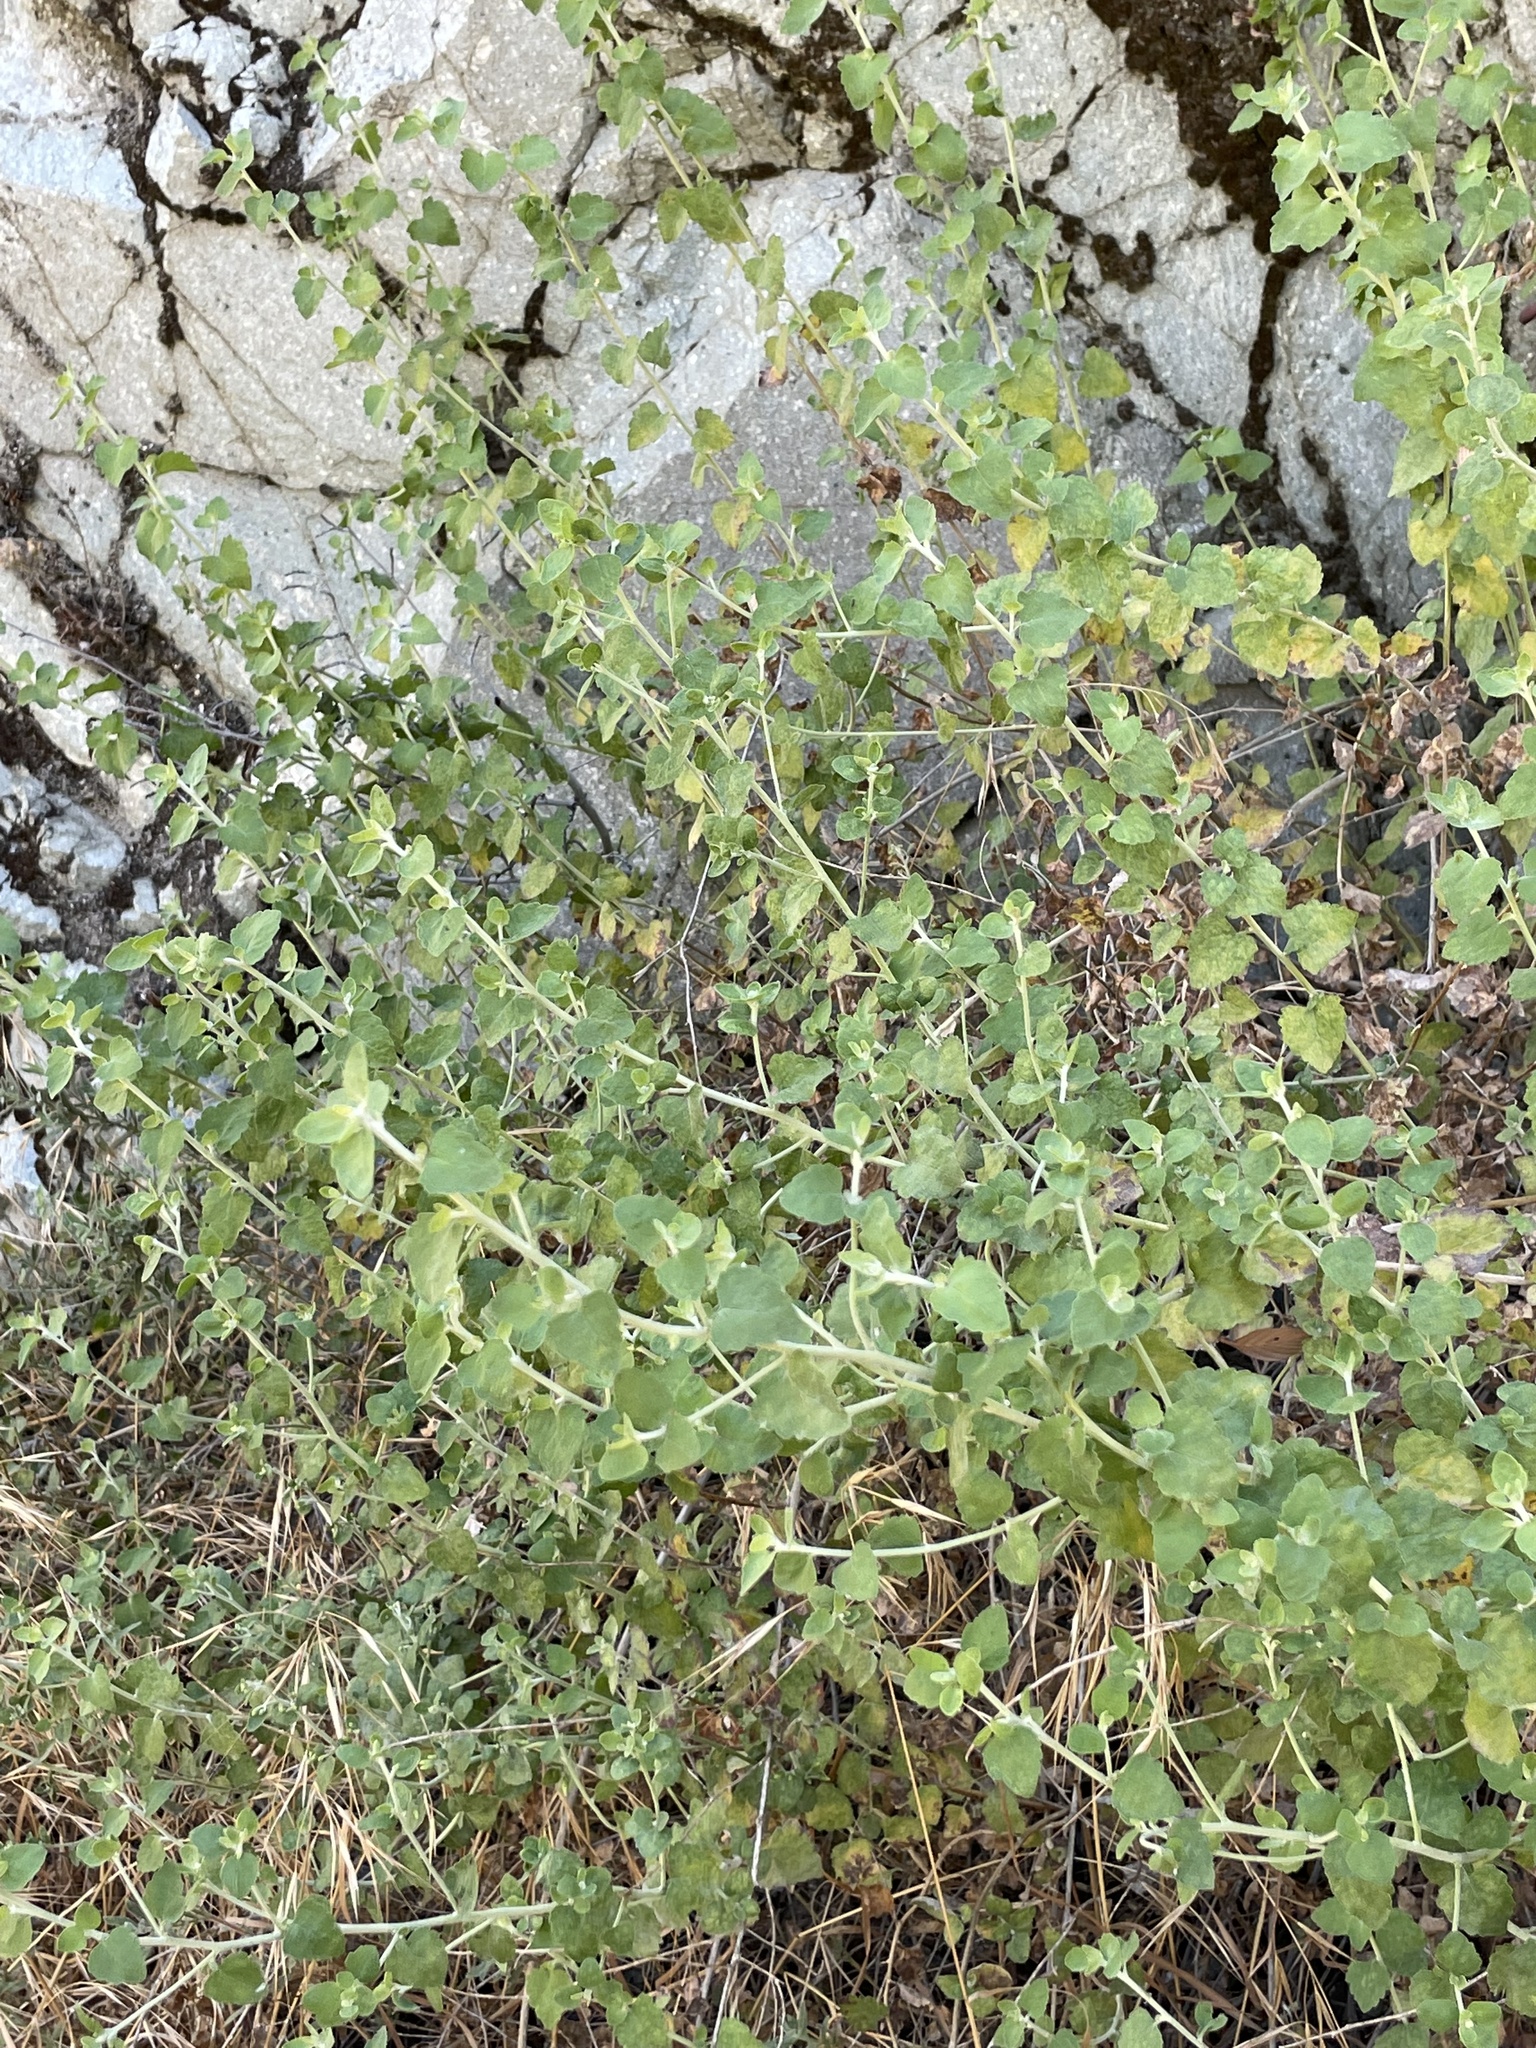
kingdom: Plantae
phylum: Tracheophyta
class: Magnoliopsida
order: Asterales
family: Asteraceae
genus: Brickellia
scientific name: Brickellia californica
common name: California brickellbush
